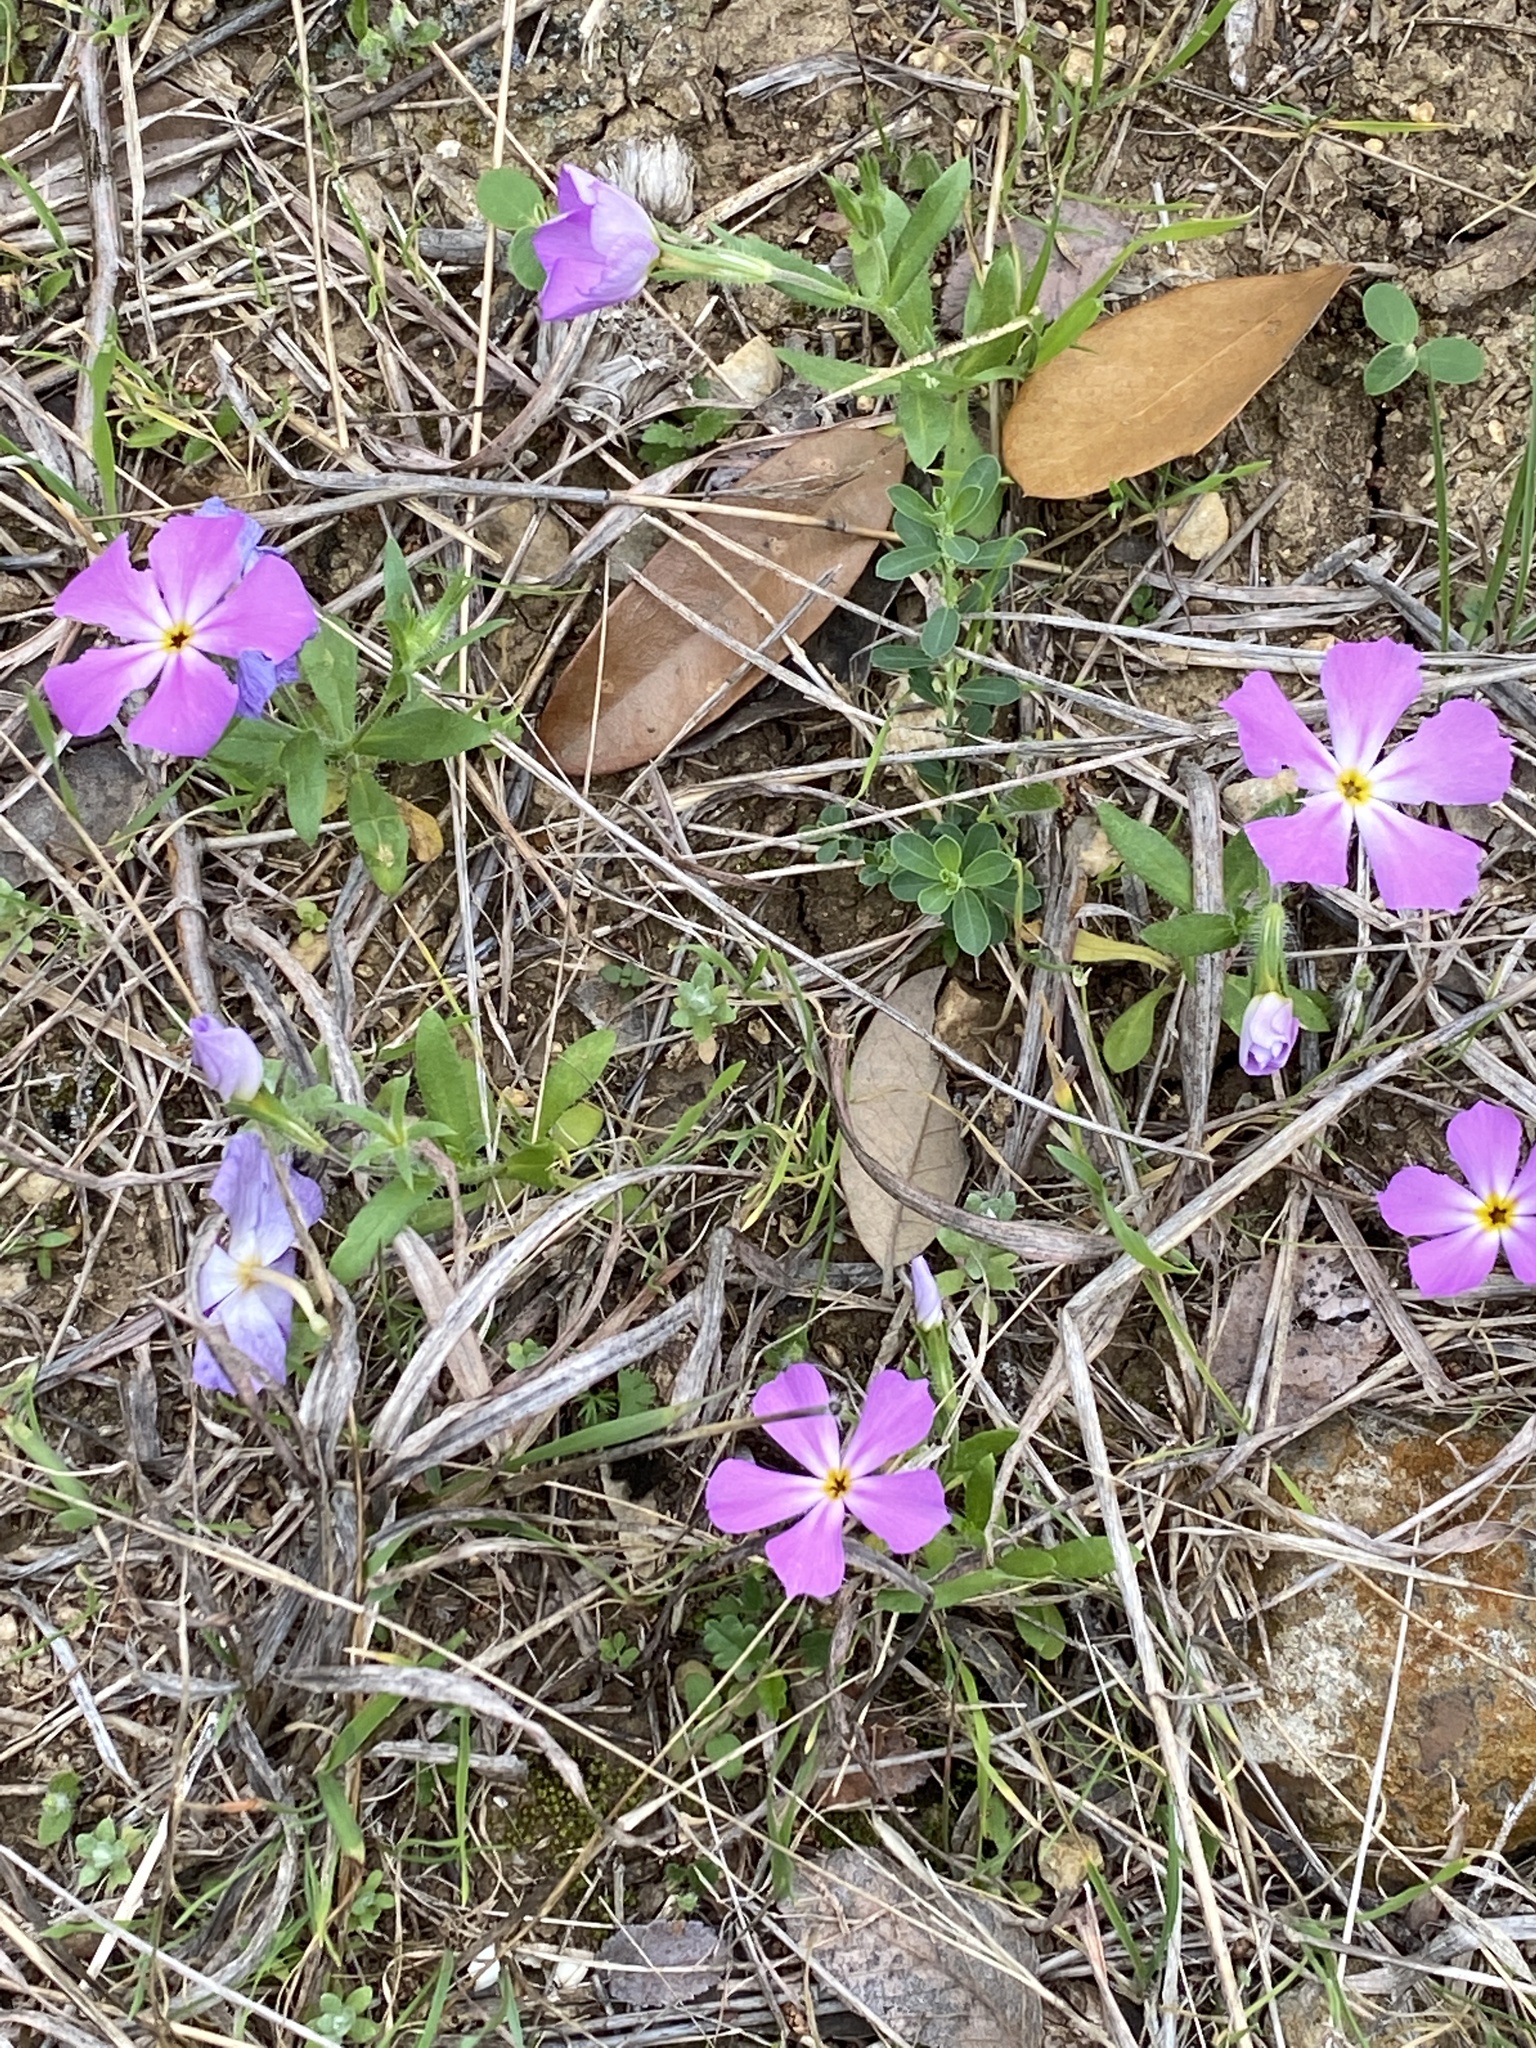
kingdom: Plantae
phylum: Tracheophyta
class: Magnoliopsida
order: Ericales
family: Polemoniaceae
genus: Phlox
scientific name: Phlox roemeriana
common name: Roemer's phlox
